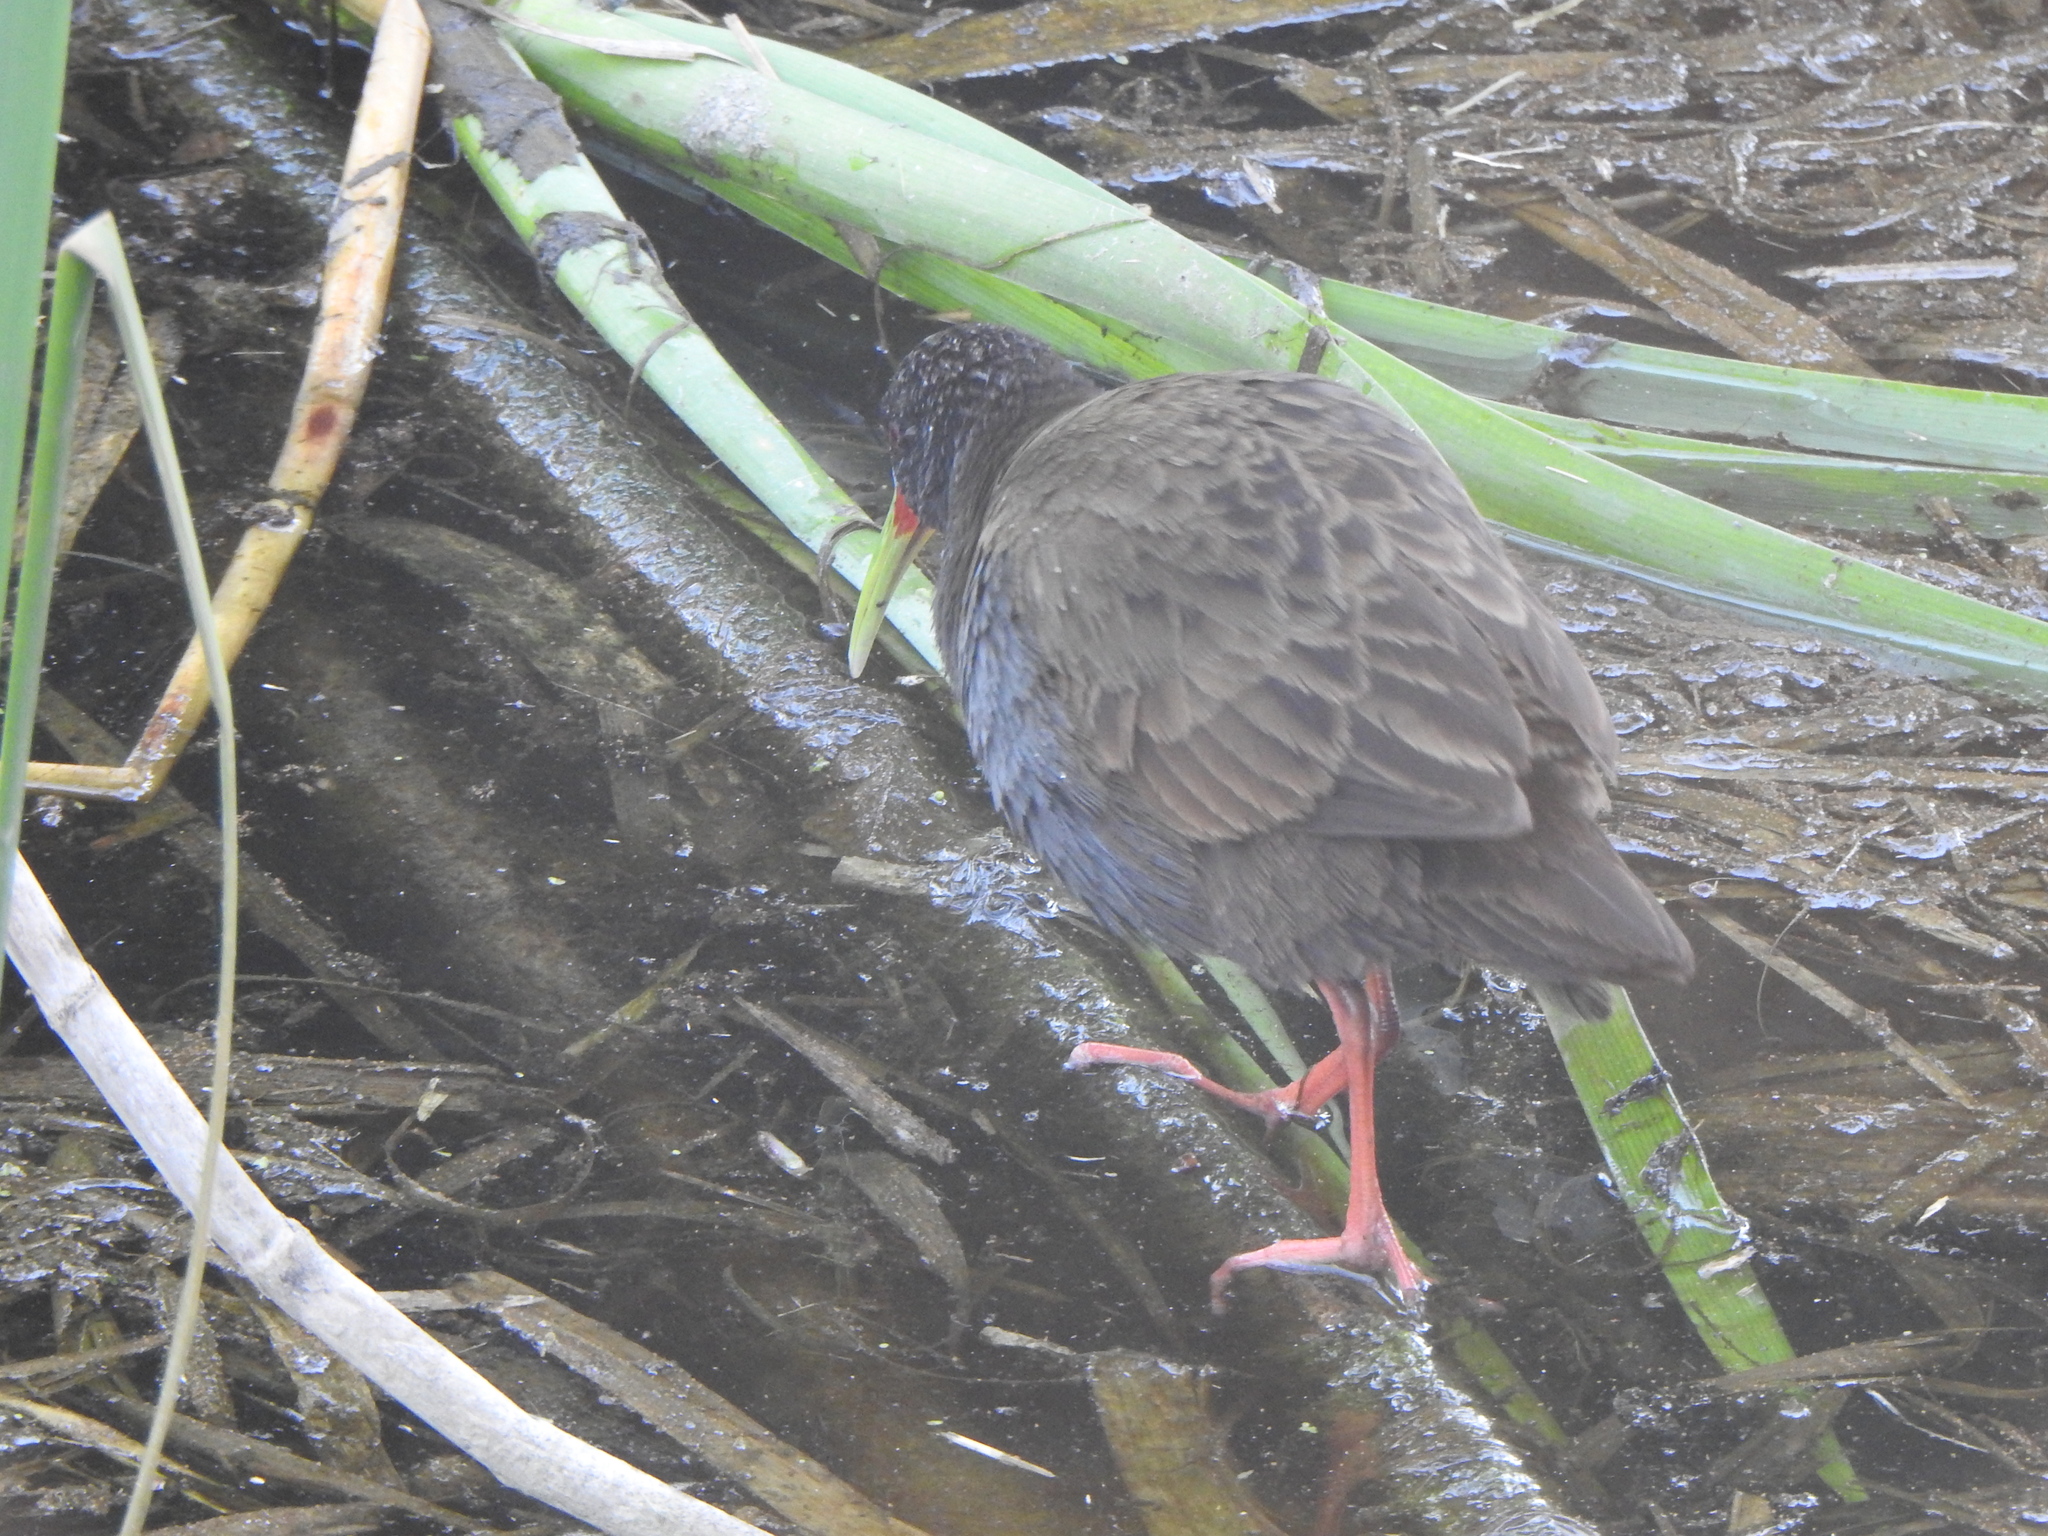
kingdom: Animalia
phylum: Chordata
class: Aves
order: Gruiformes
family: Rallidae
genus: Pardirallus
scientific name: Pardirallus sanguinolentus
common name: Plumbeous rail
